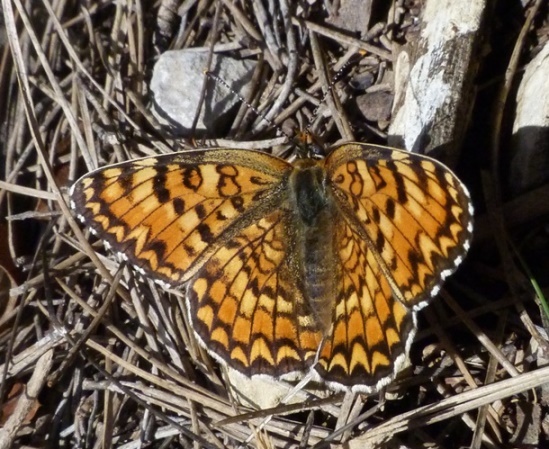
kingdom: Animalia
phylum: Arthropoda
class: Insecta
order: Lepidoptera
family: Nymphalidae
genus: Melitaea
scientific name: Melitaea phoebe
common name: Knapweed fritillary
